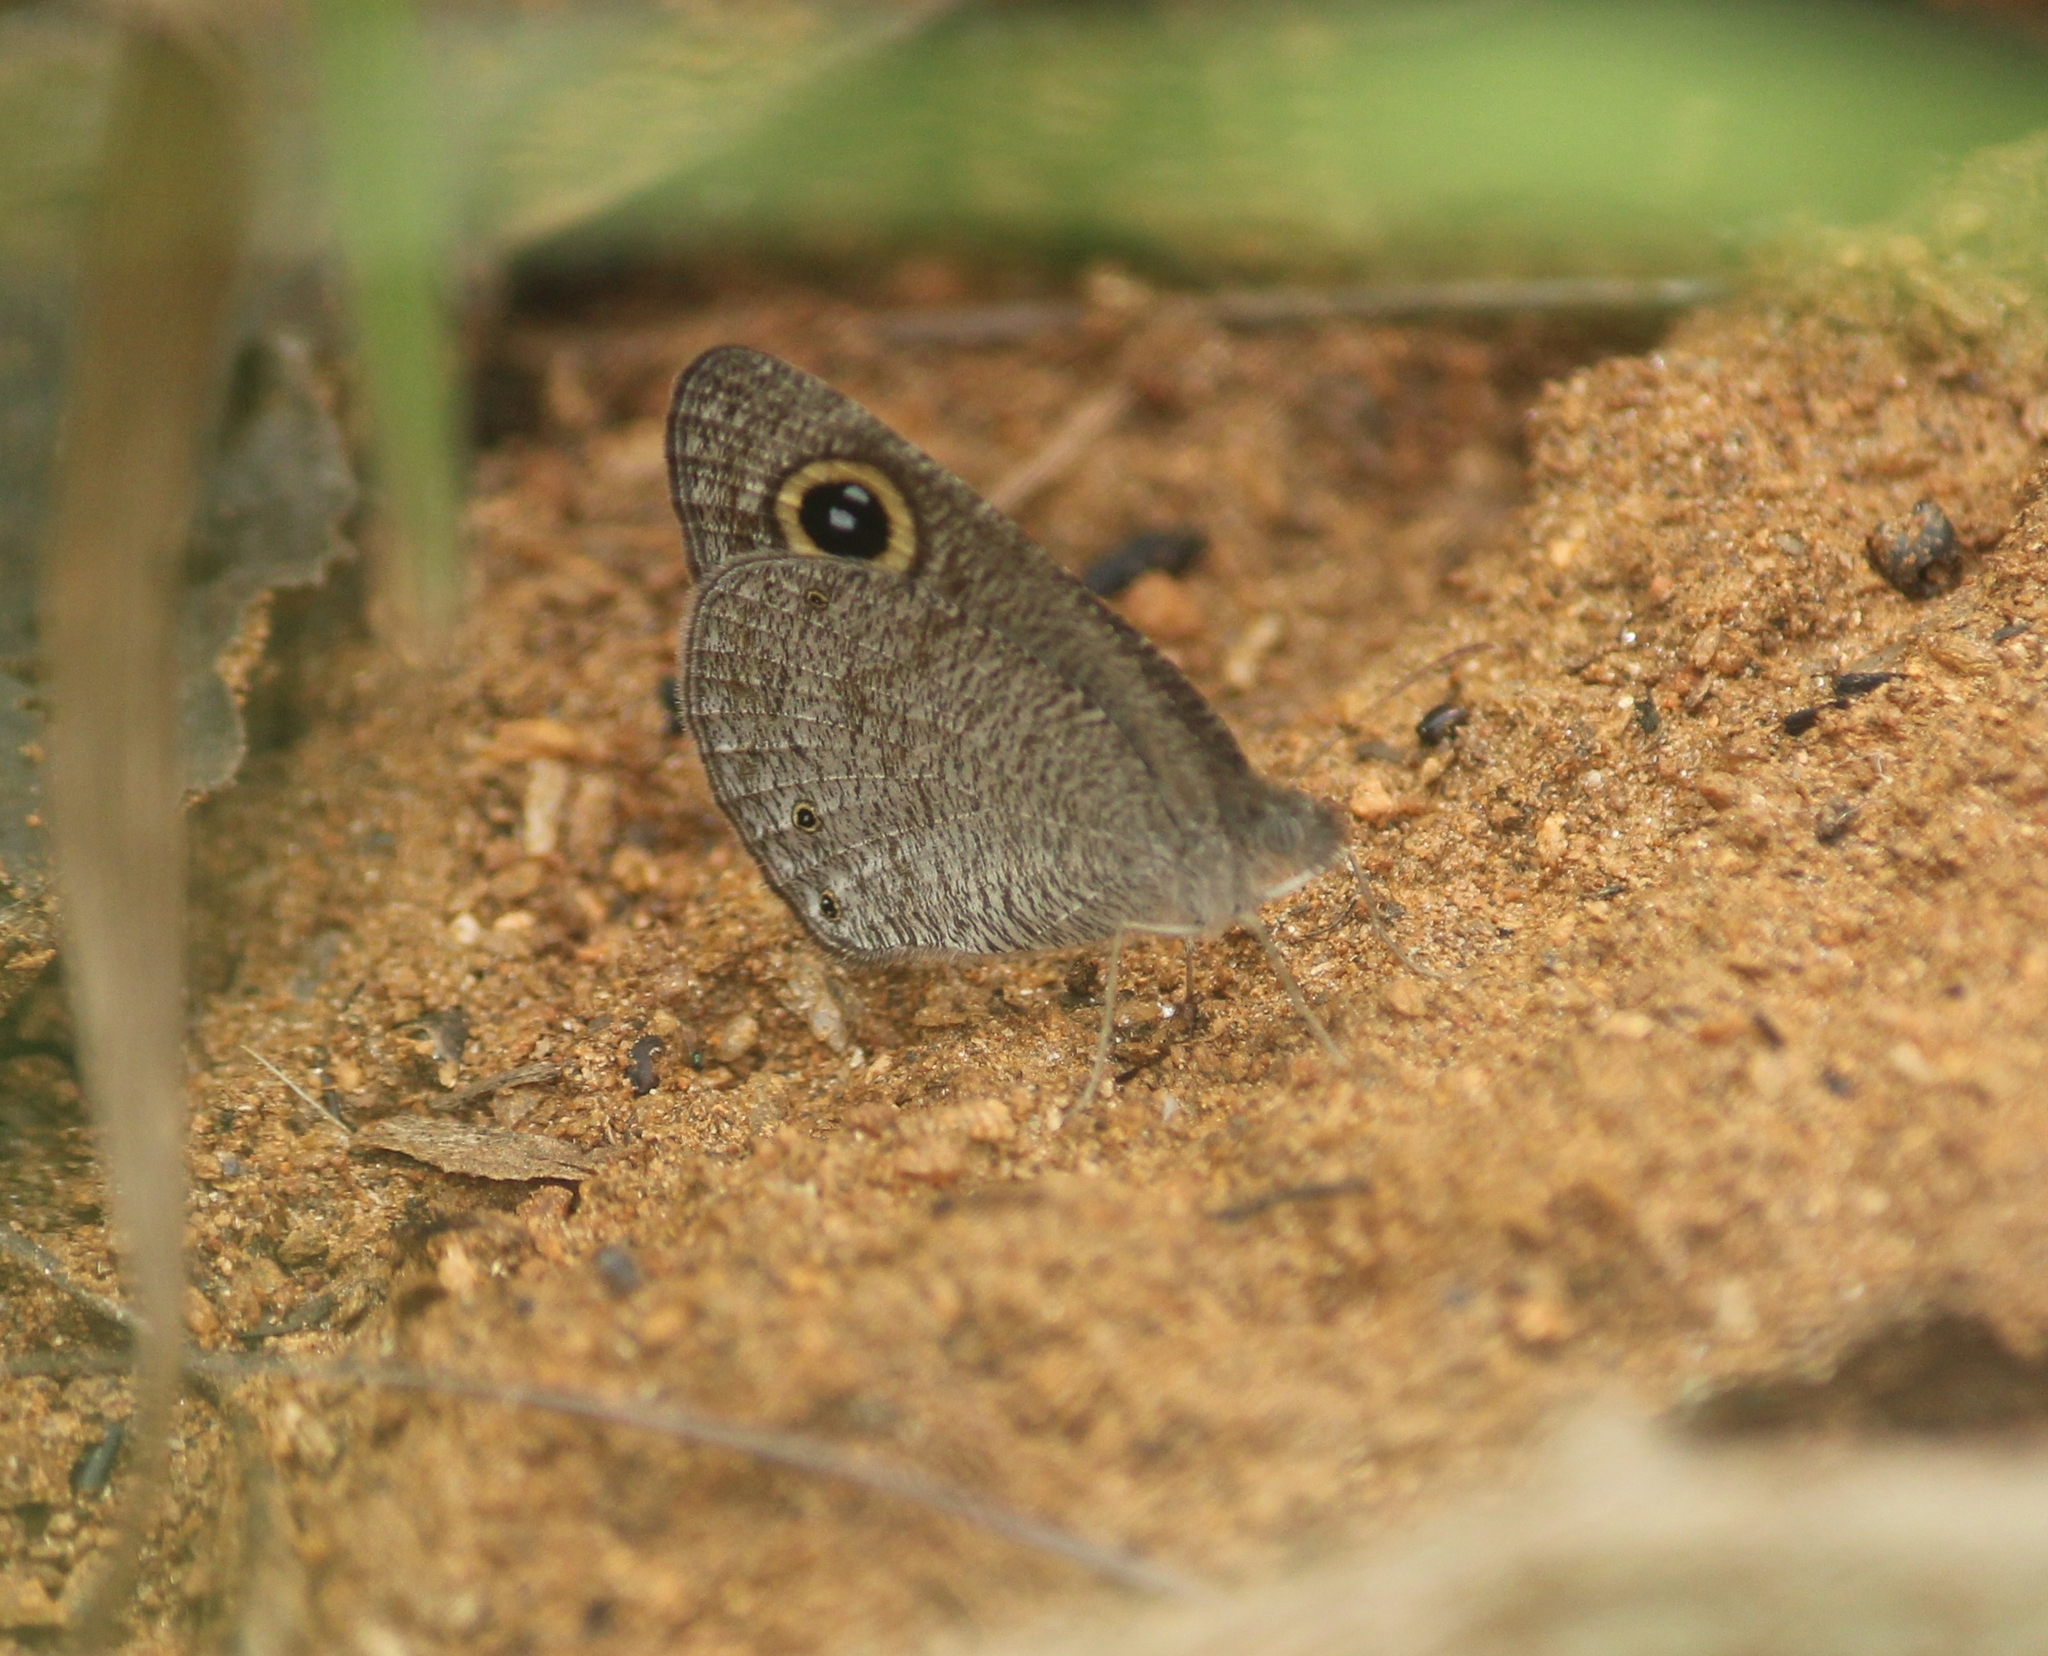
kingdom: Animalia
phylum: Arthropoda
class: Insecta
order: Lepidoptera
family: Nymphalidae
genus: Ypthima
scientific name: Ypthima asterope
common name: African ringlet
